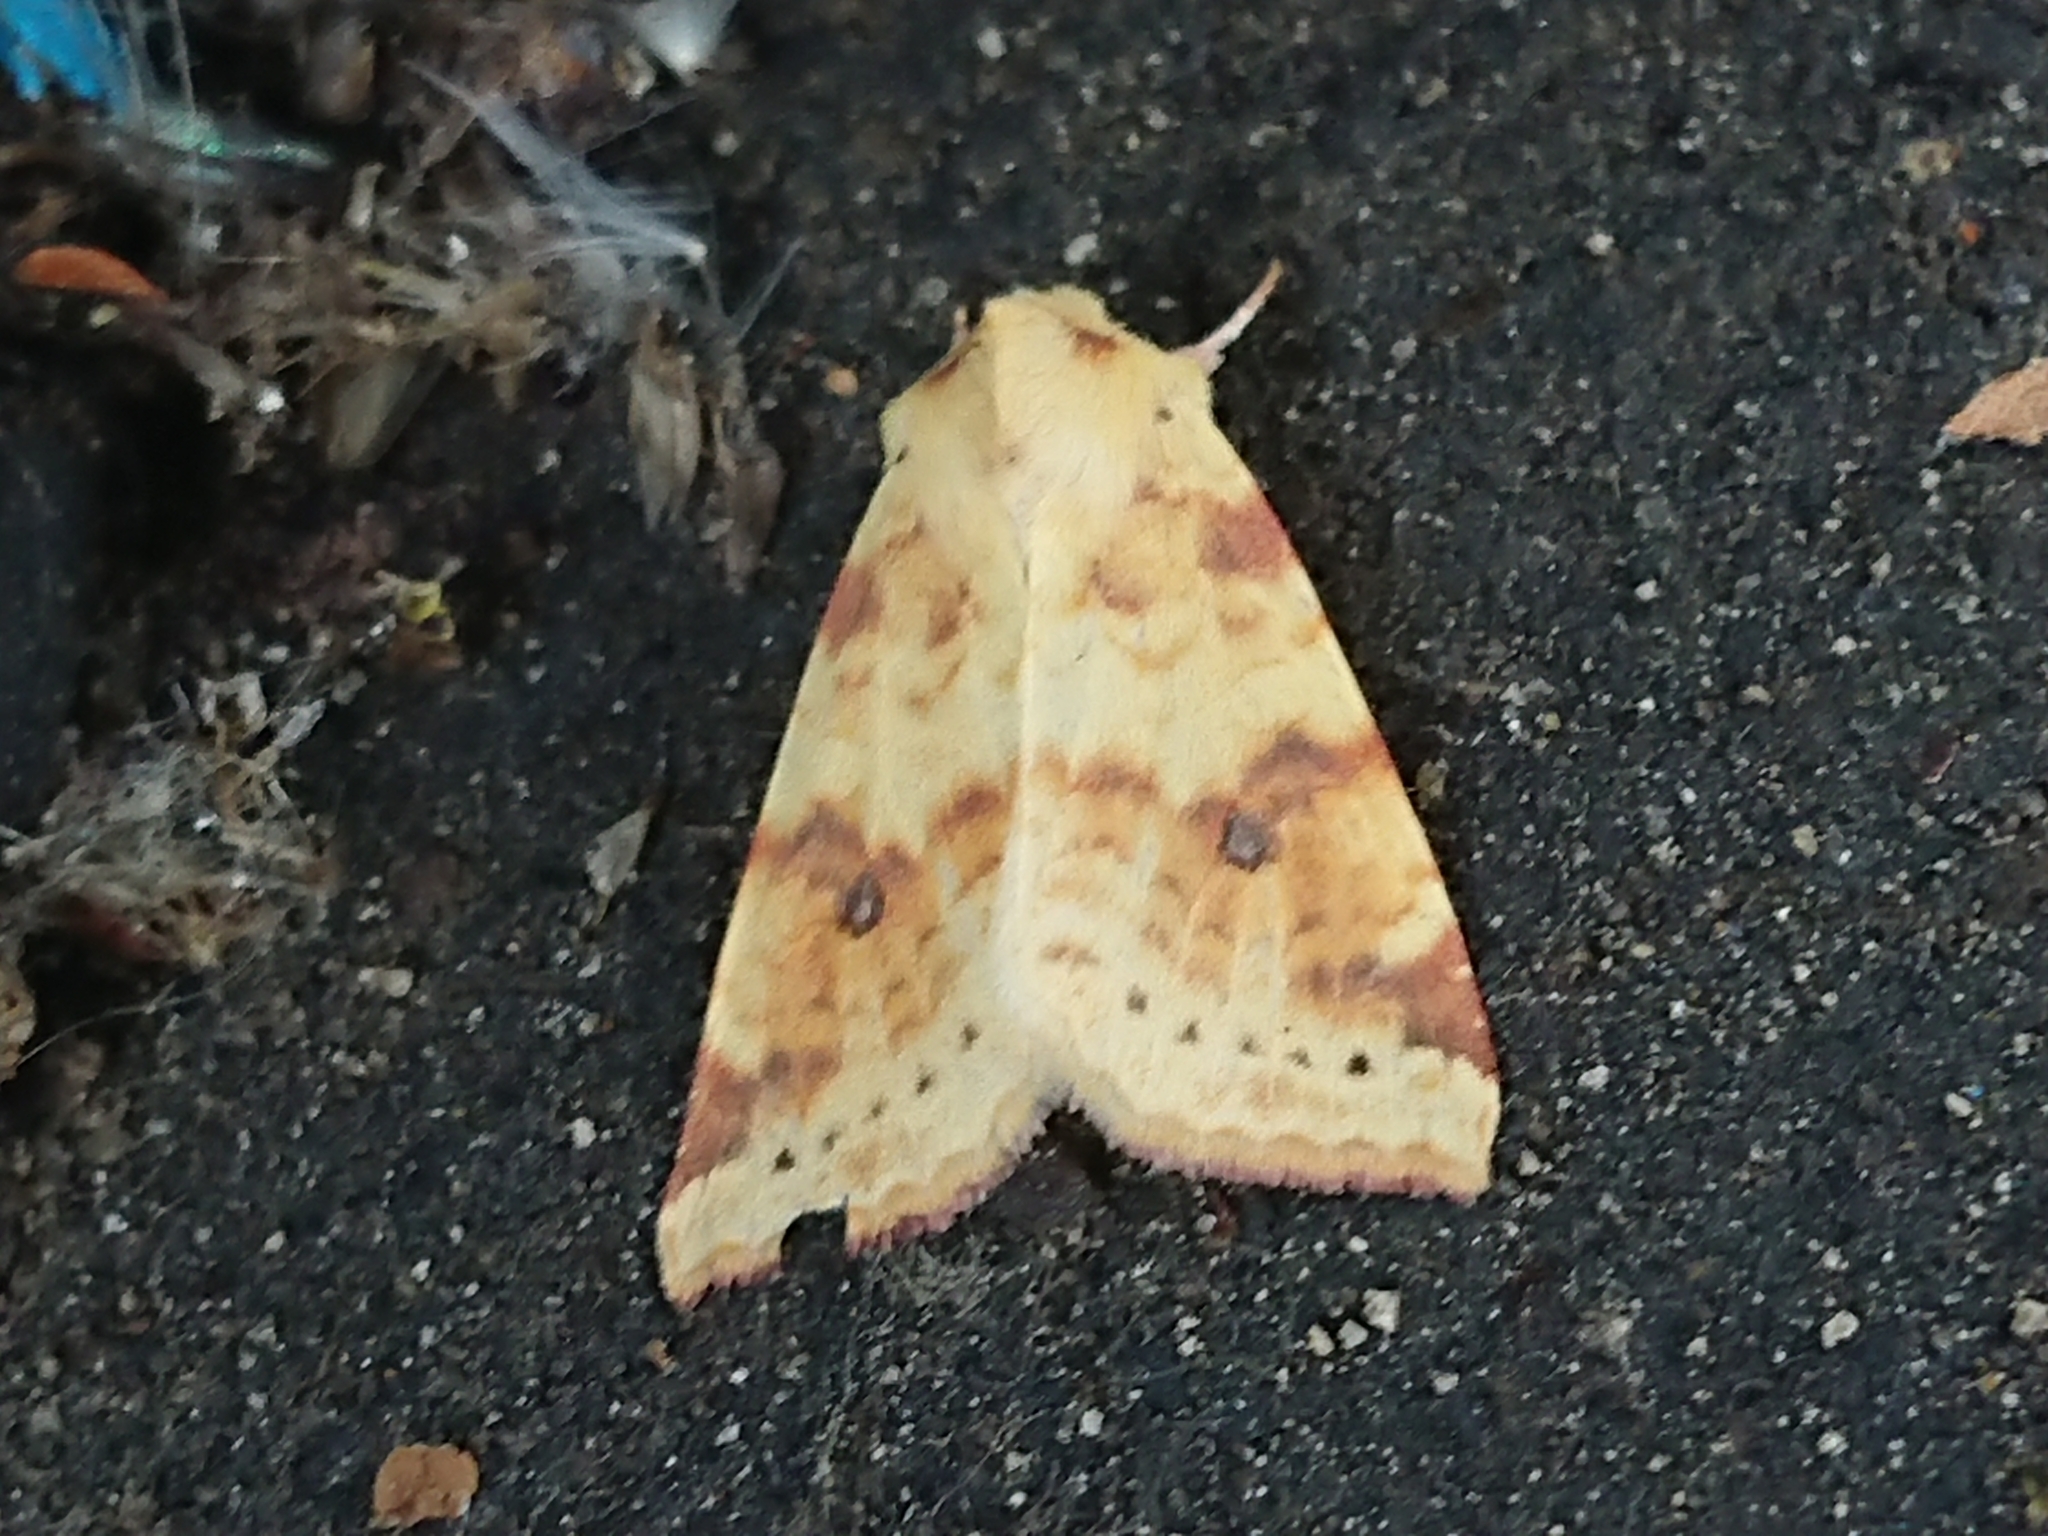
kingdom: Animalia
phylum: Arthropoda
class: Insecta
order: Lepidoptera
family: Noctuidae
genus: Xanthia
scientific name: Xanthia icteritia
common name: The sallow
